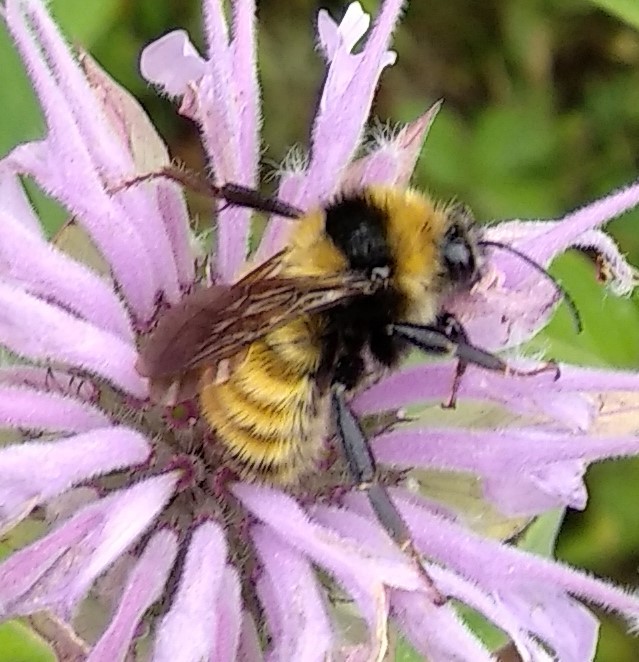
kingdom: Animalia
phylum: Arthropoda
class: Insecta
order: Hymenoptera
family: Apidae
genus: Bombus
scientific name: Bombus borealis
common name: Northern amber bumble bee
